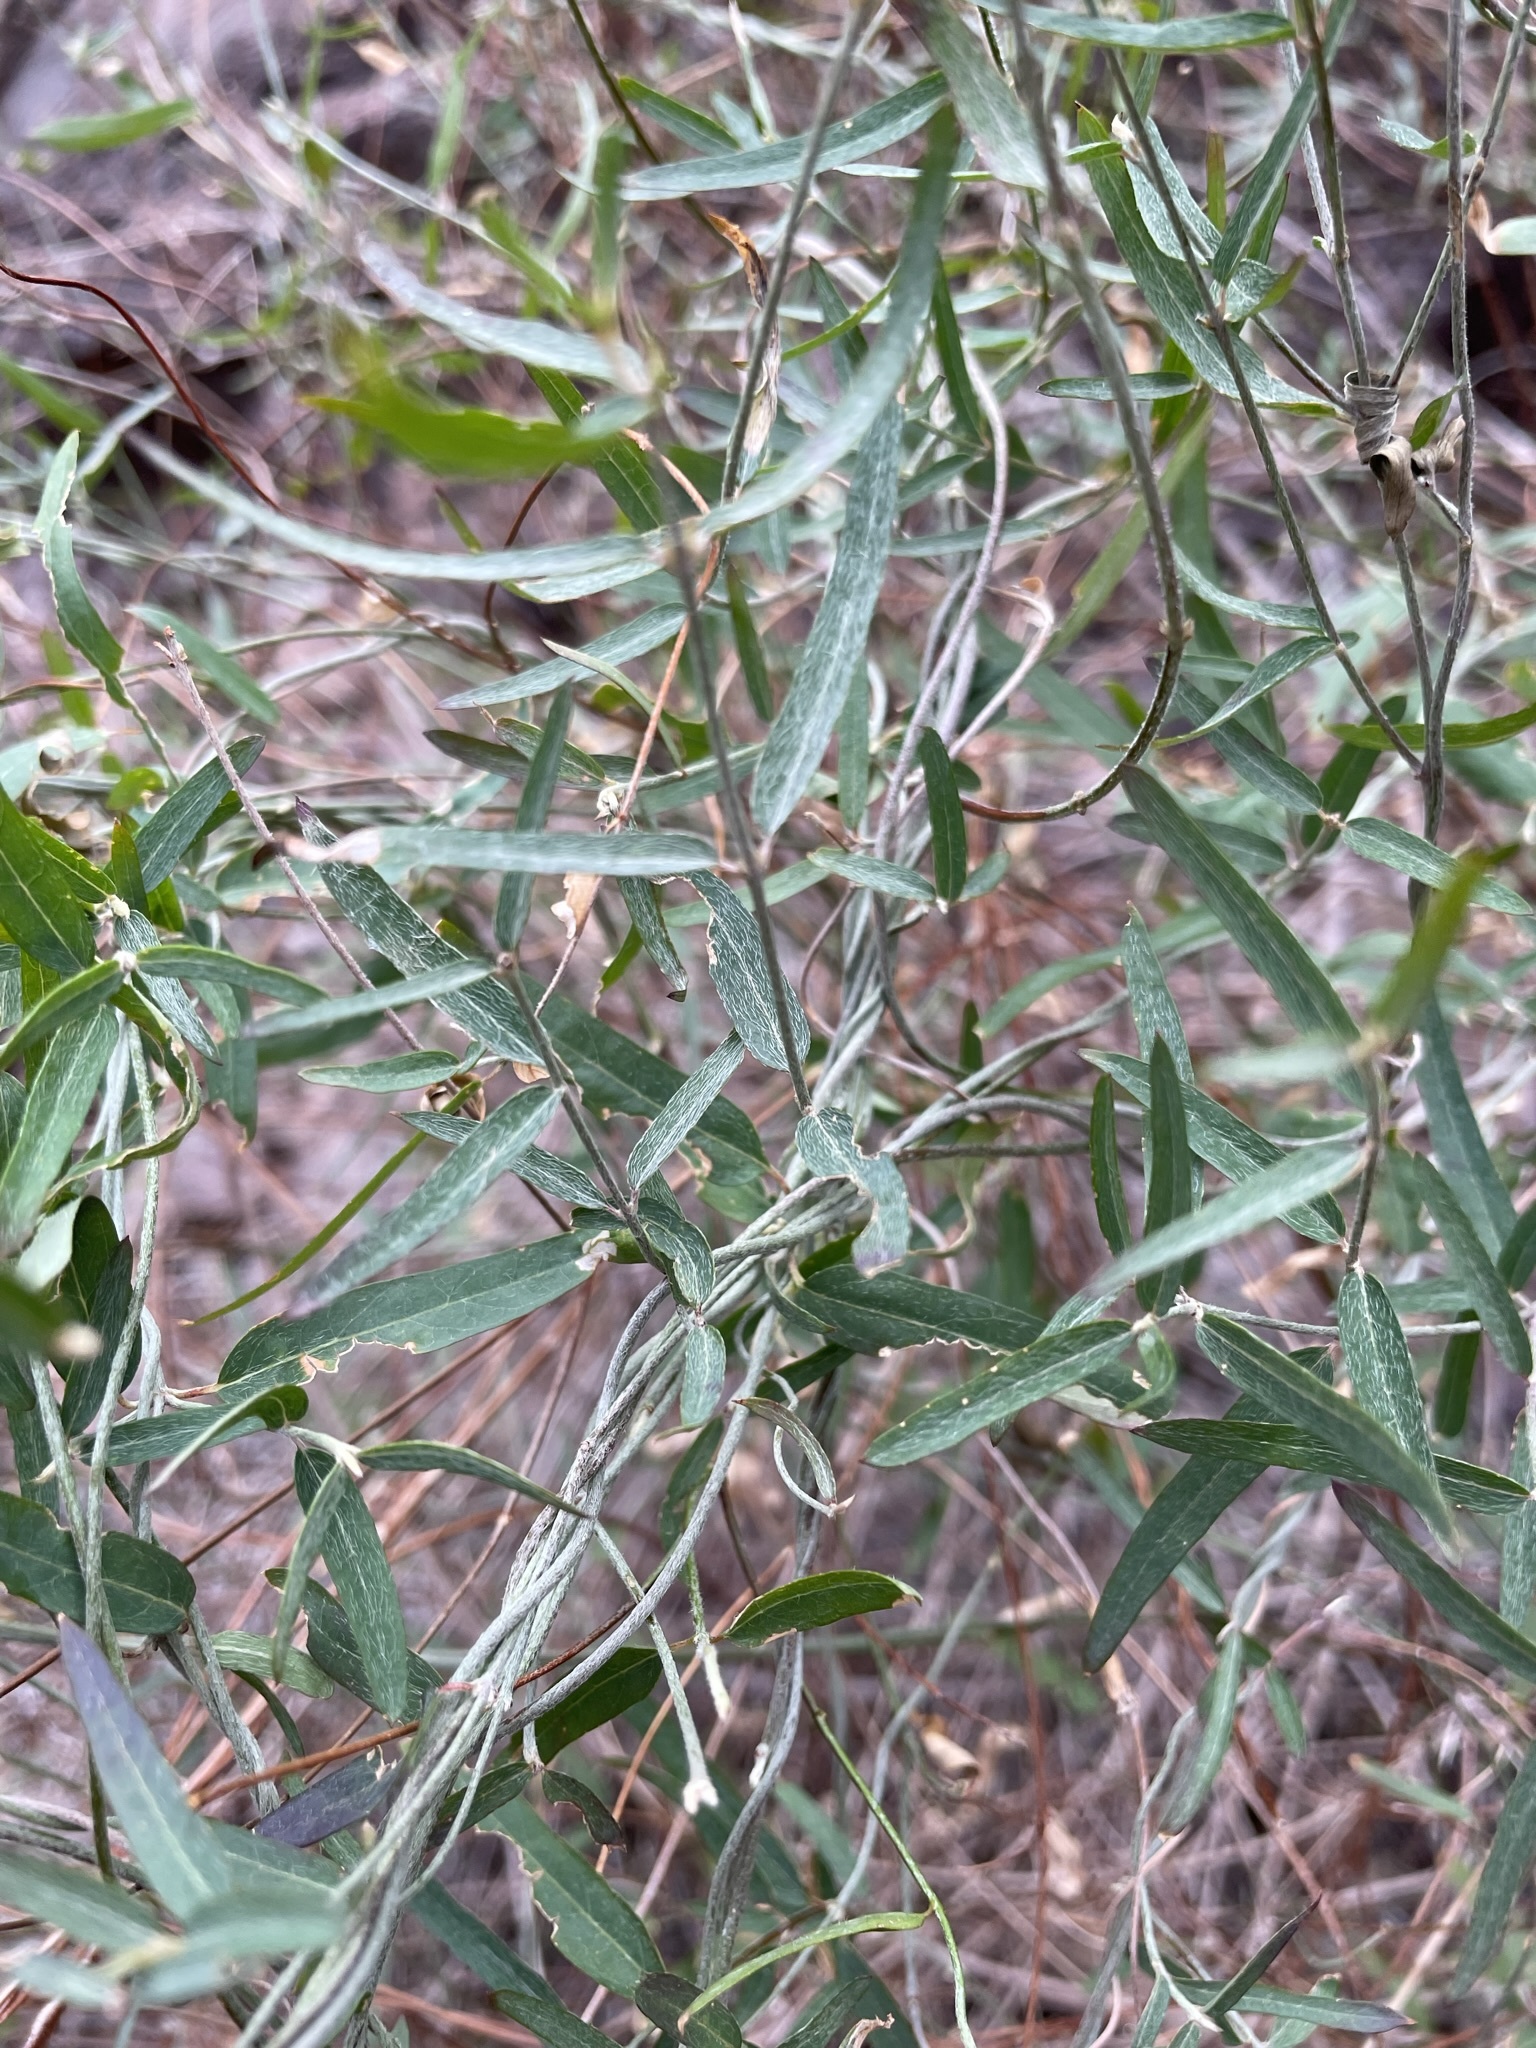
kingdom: Plantae
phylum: Tracheophyta
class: Magnoliopsida
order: Malpighiales
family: Malpighiaceae
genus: Cottsia
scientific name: Cottsia gracilis
